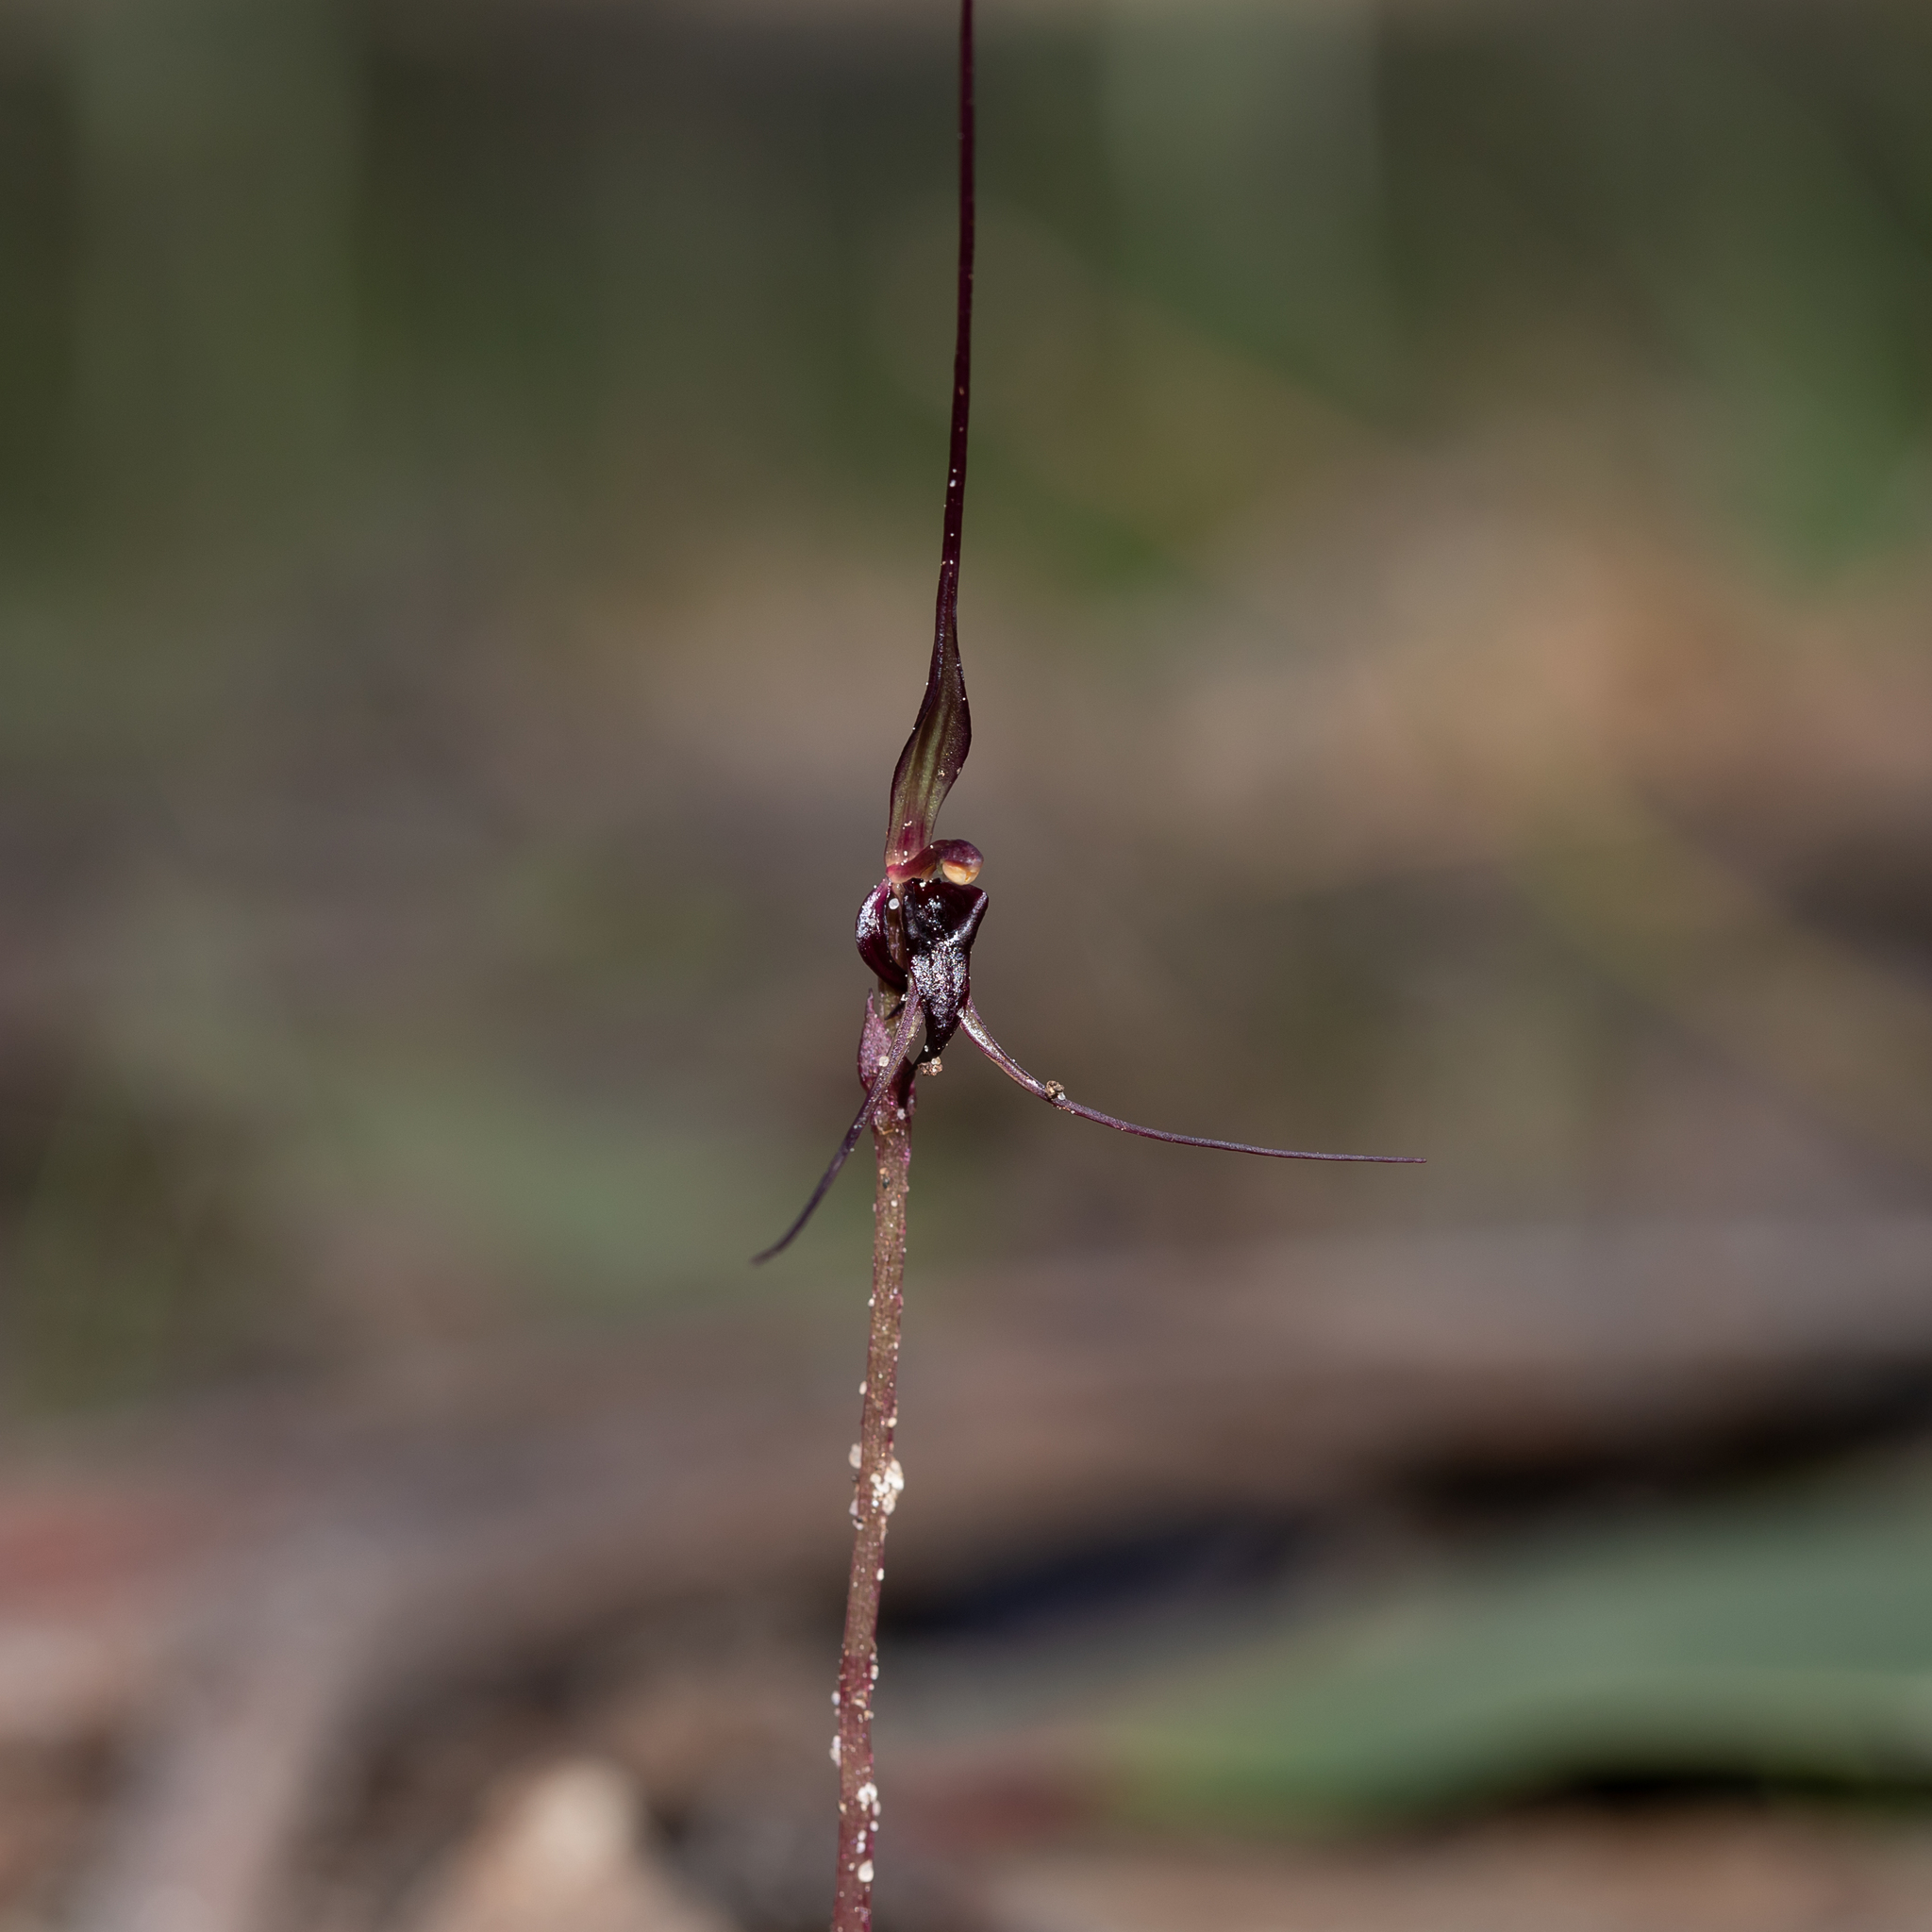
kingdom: Plantae
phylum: Tracheophyta
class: Liliopsida
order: Asparagales
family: Orchidaceae
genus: Acianthus
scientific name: Acianthus caudatus
